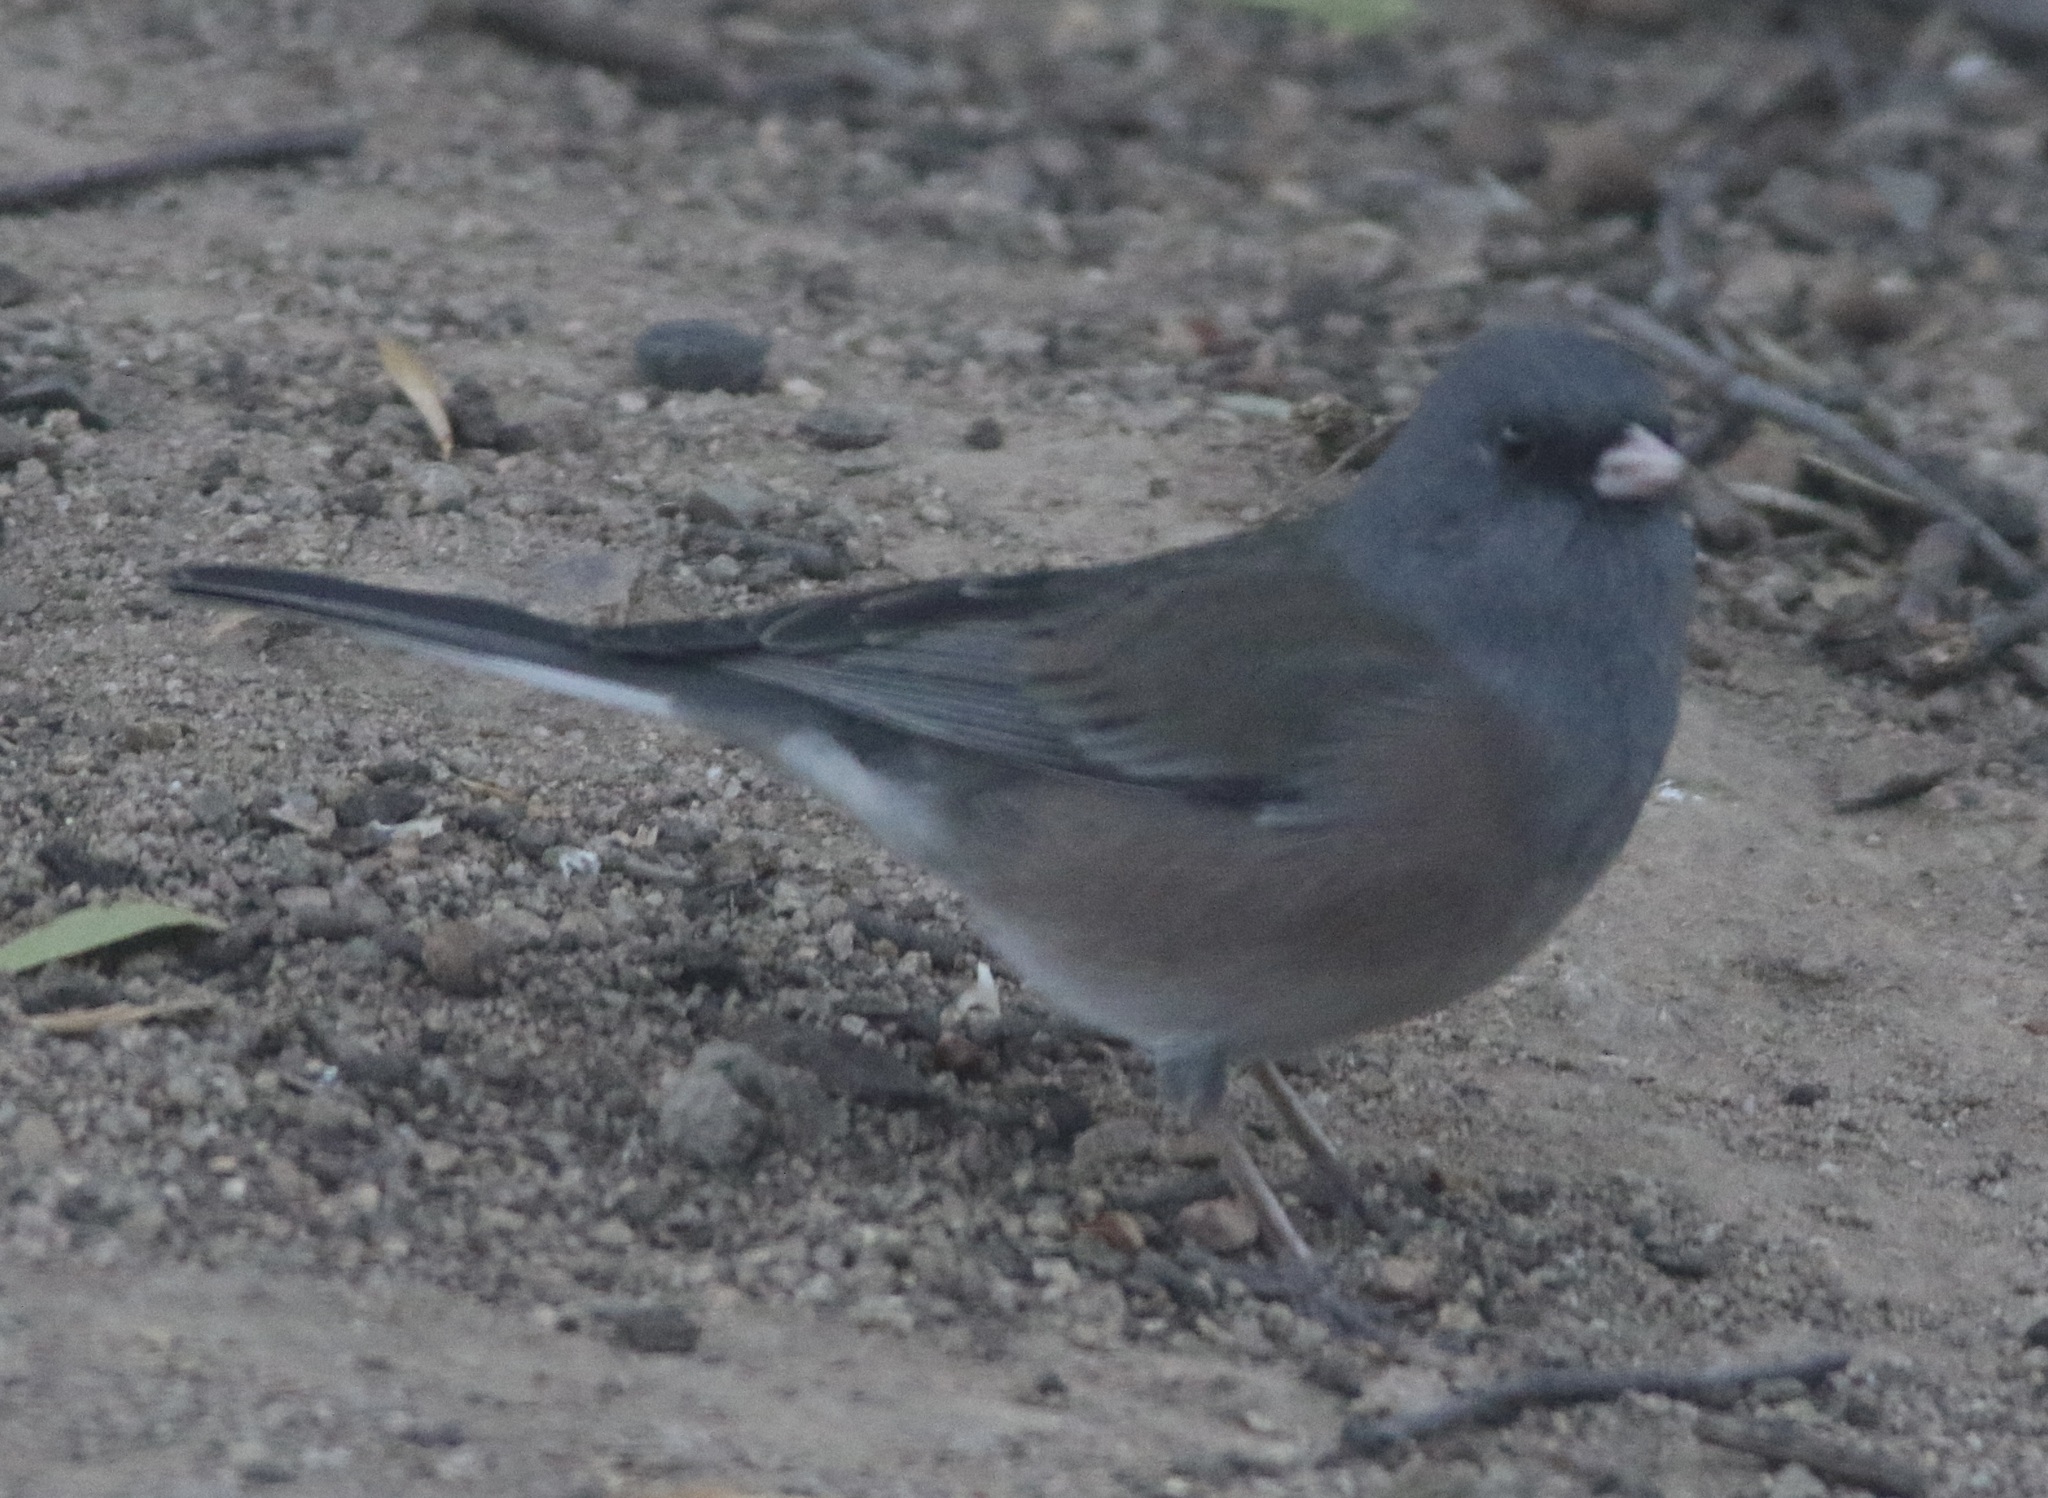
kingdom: Animalia
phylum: Chordata
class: Aves
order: Passeriformes
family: Passerellidae
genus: Junco
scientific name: Junco hyemalis
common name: Dark-eyed junco
